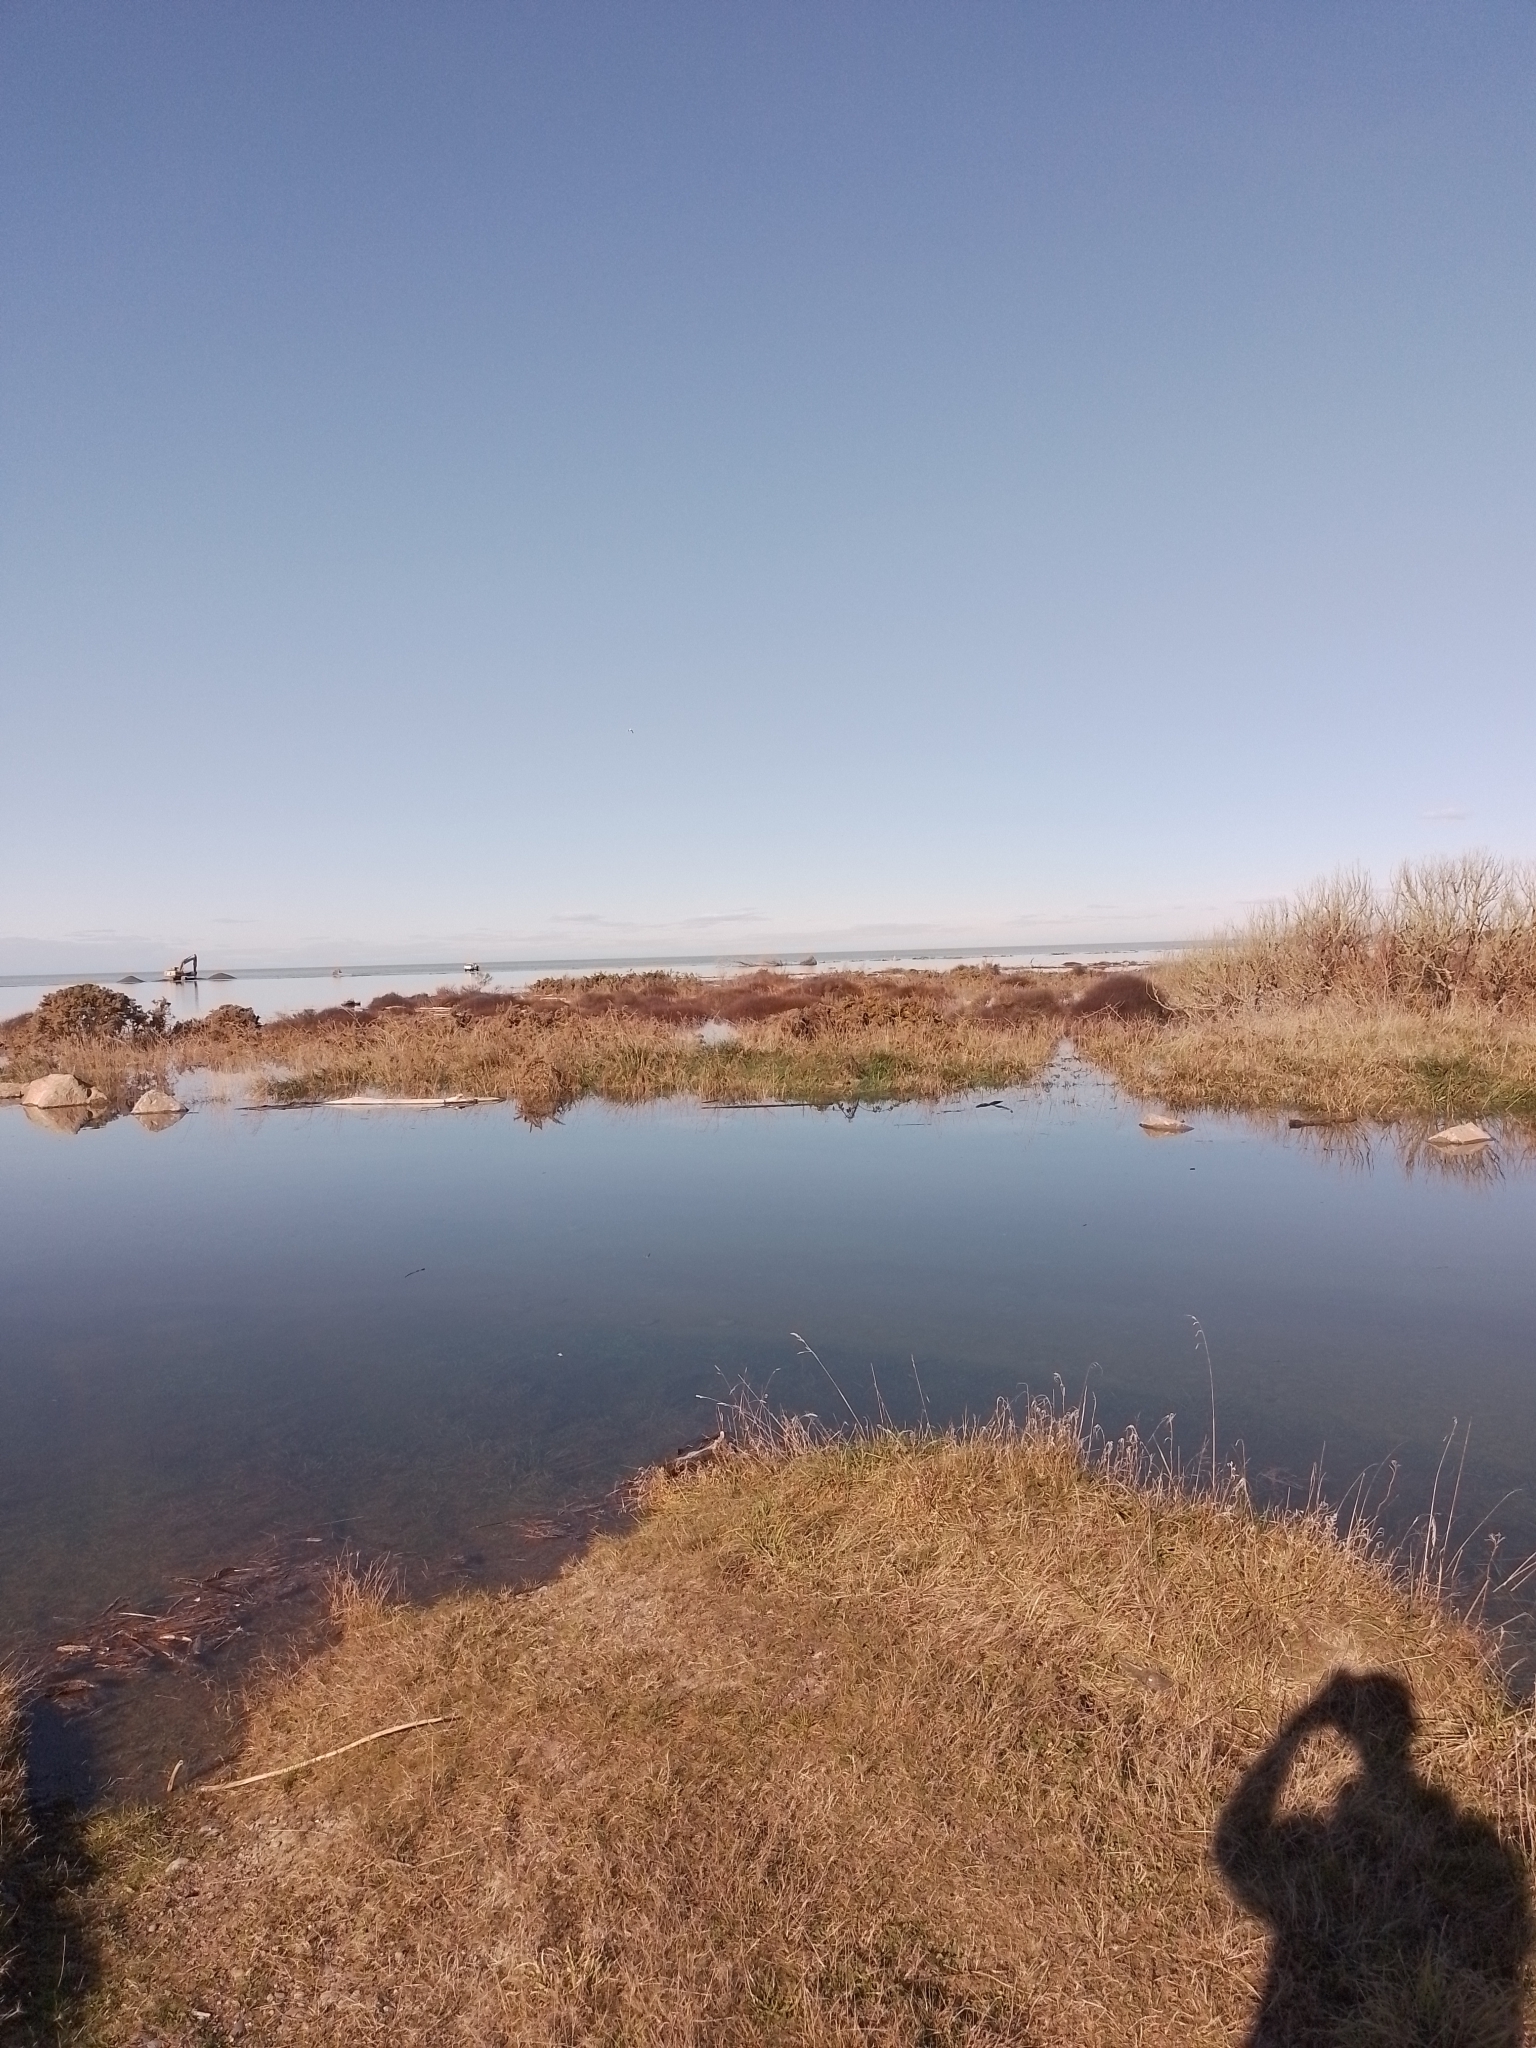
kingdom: Plantae
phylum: Tracheophyta
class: Magnoliopsida
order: Malvales
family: Malvaceae
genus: Plagianthus
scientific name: Plagianthus divaricatus
